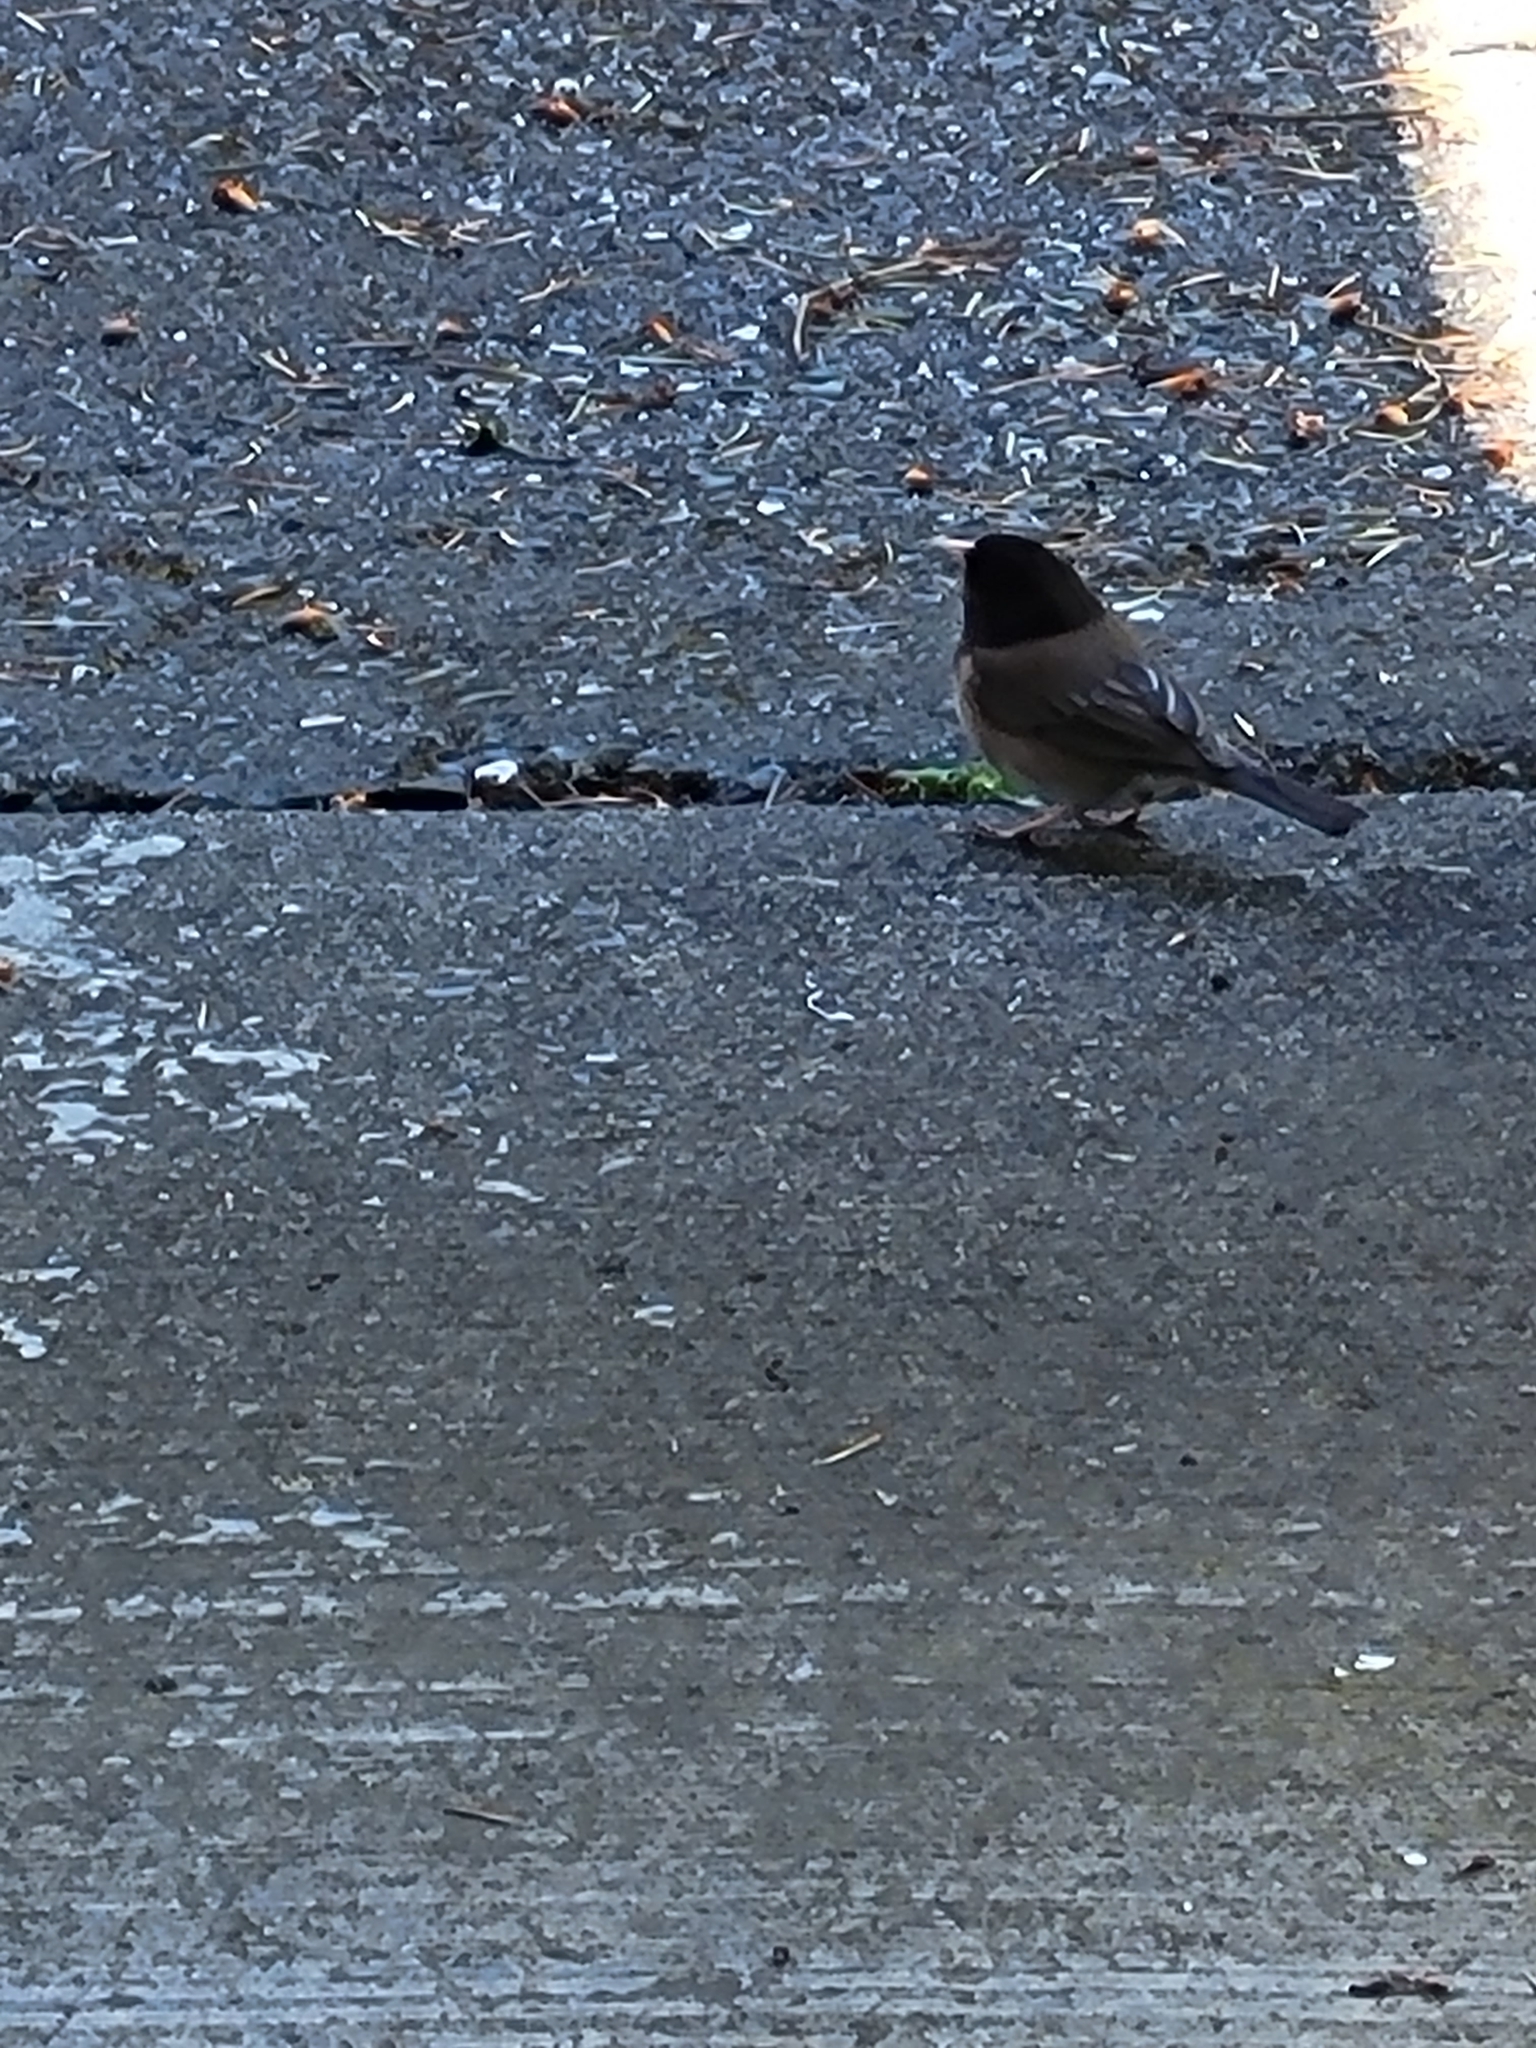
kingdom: Animalia
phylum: Chordata
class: Aves
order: Passeriformes
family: Passerellidae
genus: Junco
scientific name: Junco hyemalis
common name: Dark-eyed junco
